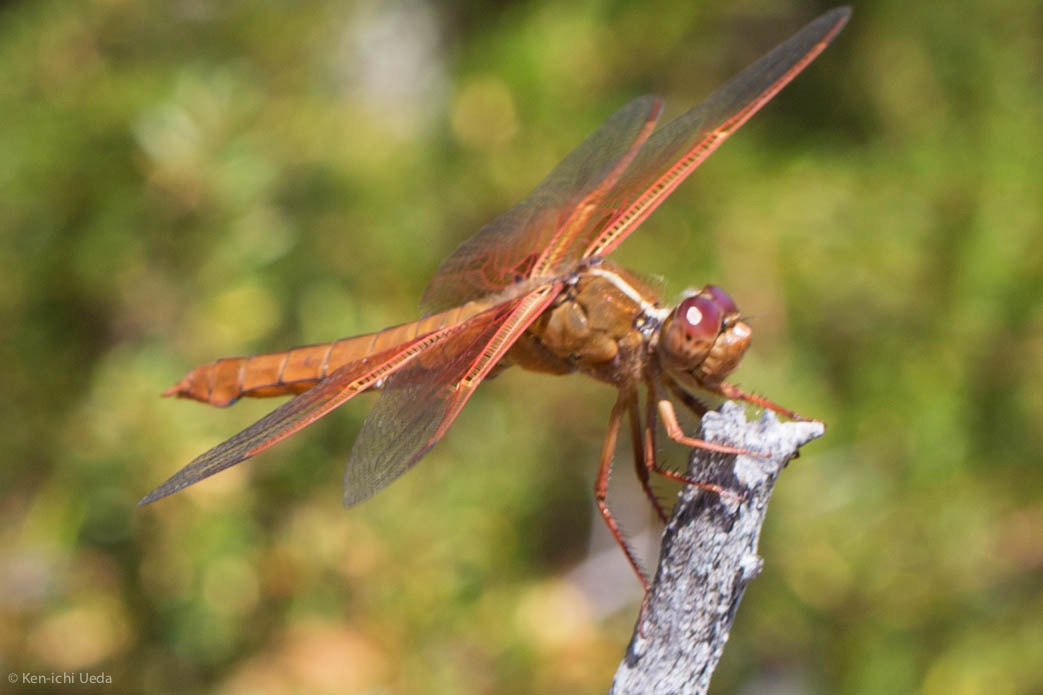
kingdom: Animalia
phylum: Arthropoda
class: Insecta
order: Odonata
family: Libellulidae
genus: Libellula
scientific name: Libellula saturata
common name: Flame skimmer
